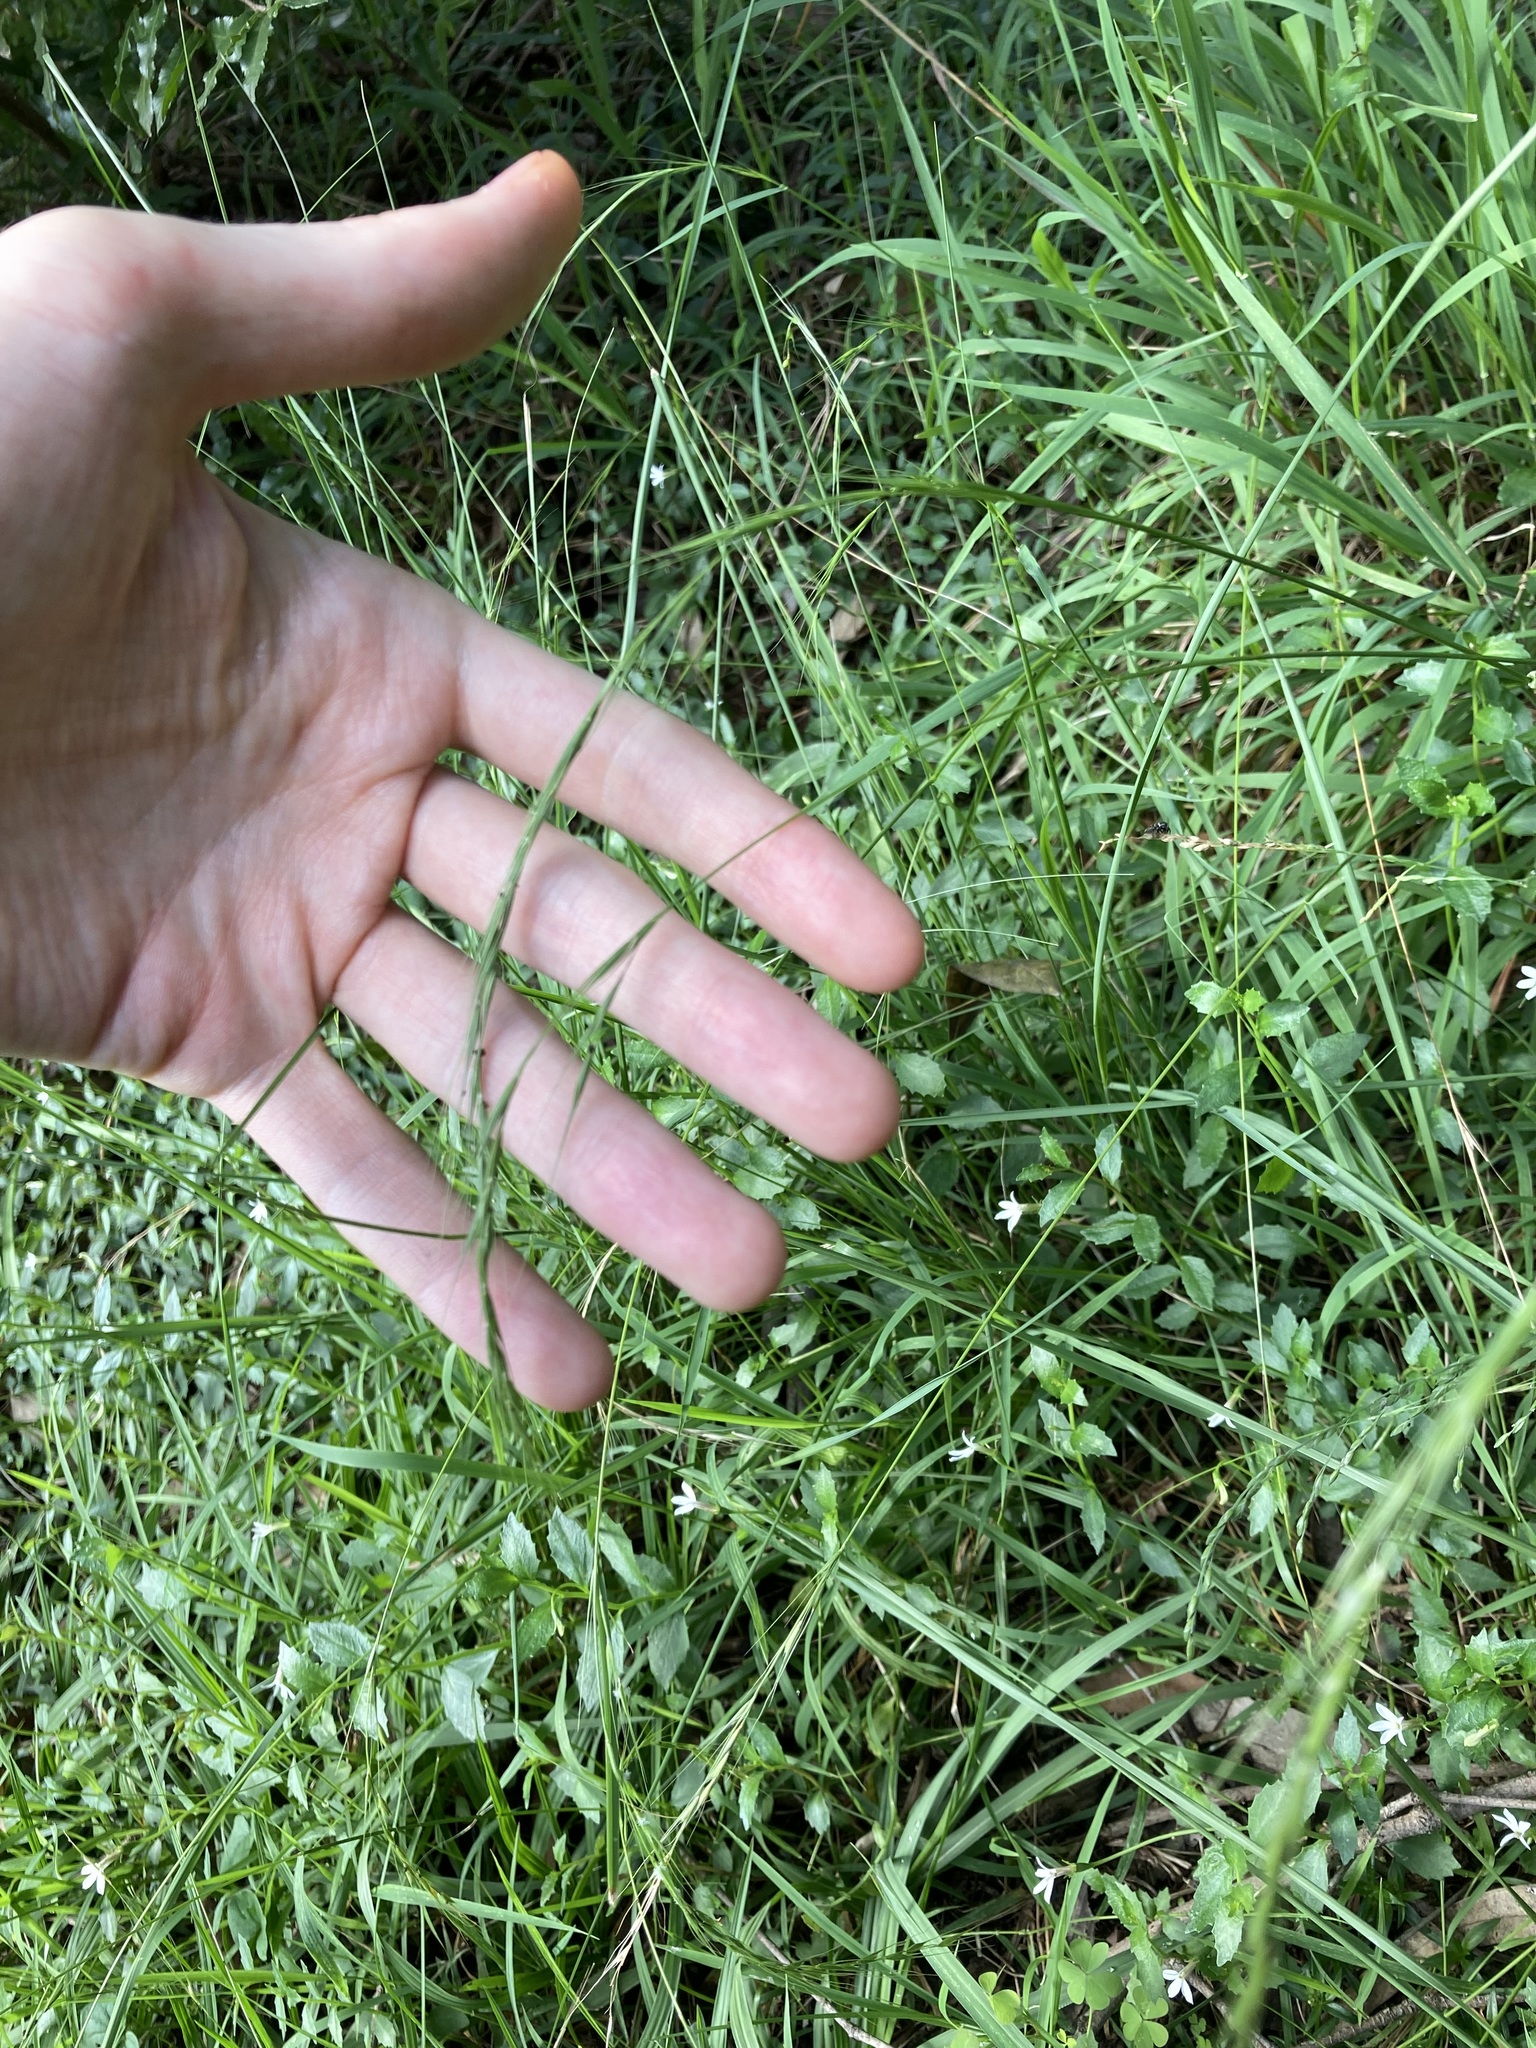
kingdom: Plantae
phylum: Tracheophyta
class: Liliopsida
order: Poales
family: Poaceae
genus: Microlaena
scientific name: Microlaena stipoides
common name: Meadow ricegrass
